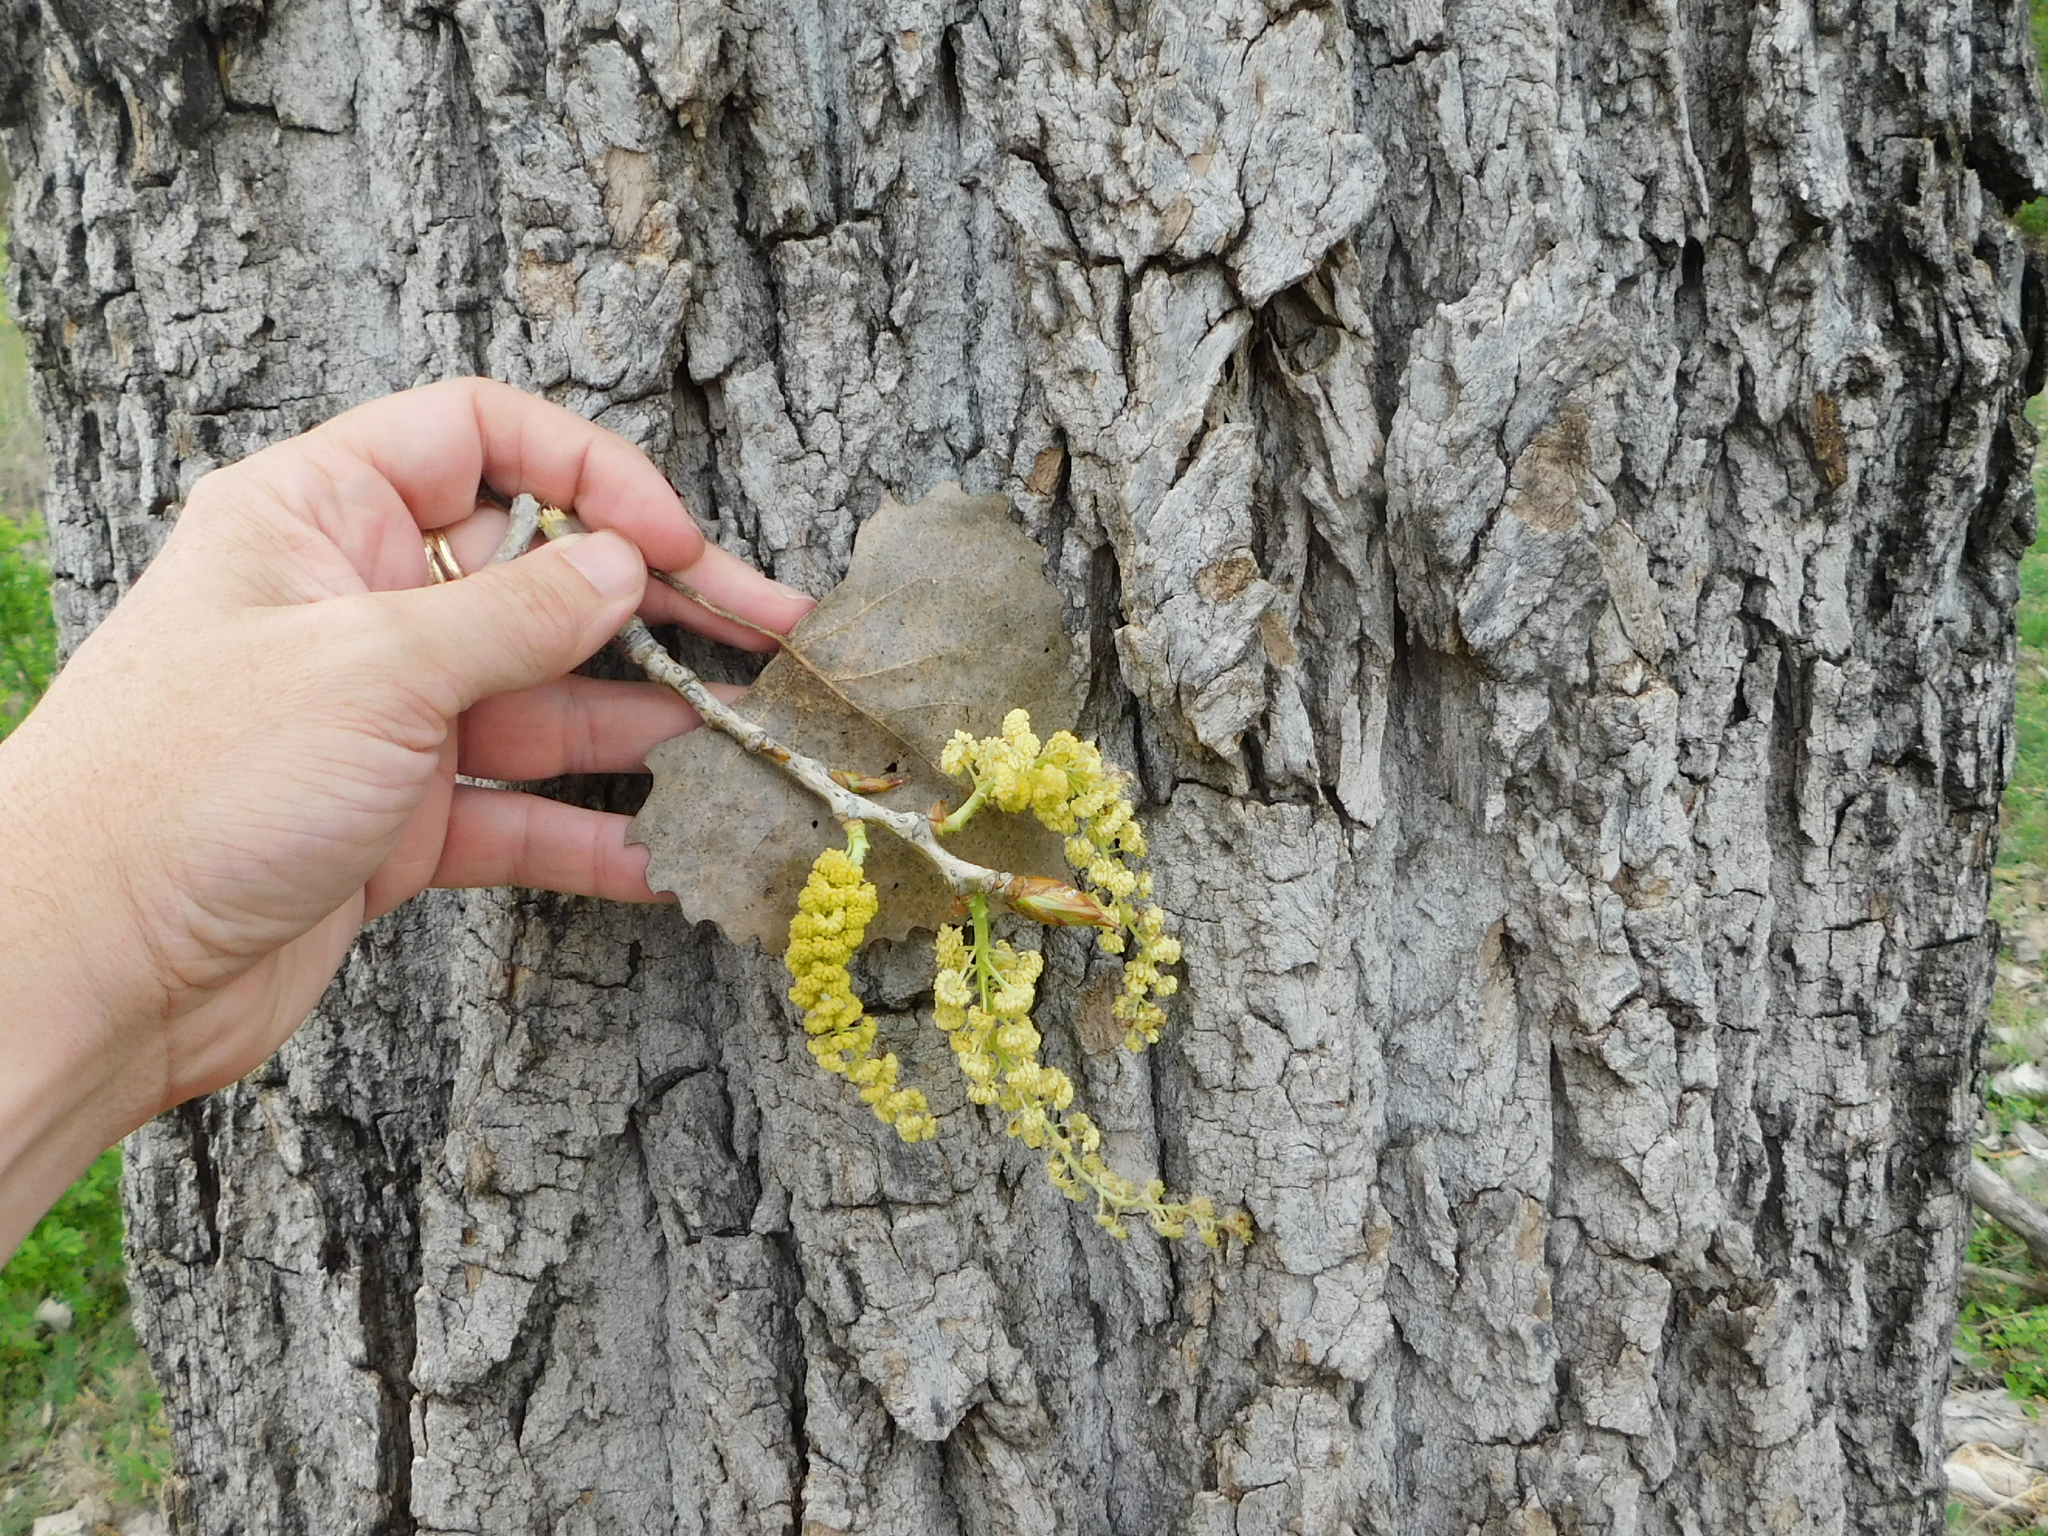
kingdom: Plantae
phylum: Tracheophyta
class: Magnoliopsida
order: Malpighiales
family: Salicaceae
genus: Populus
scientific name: Populus deltoides
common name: Eastern cottonwood
